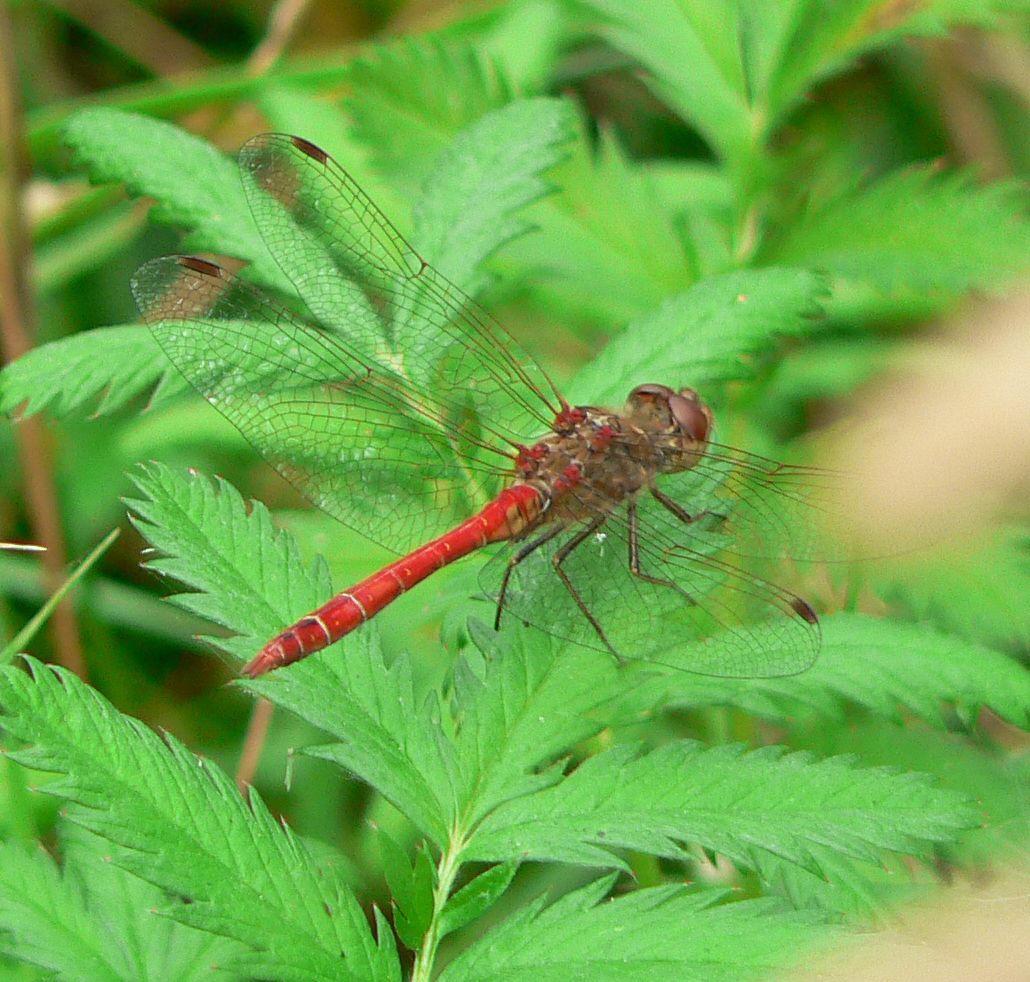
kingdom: Animalia
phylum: Arthropoda
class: Insecta
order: Odonata
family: Libellulidae
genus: Sympetrum
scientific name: Sympetrum vulgatum
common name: Vagrant darter
